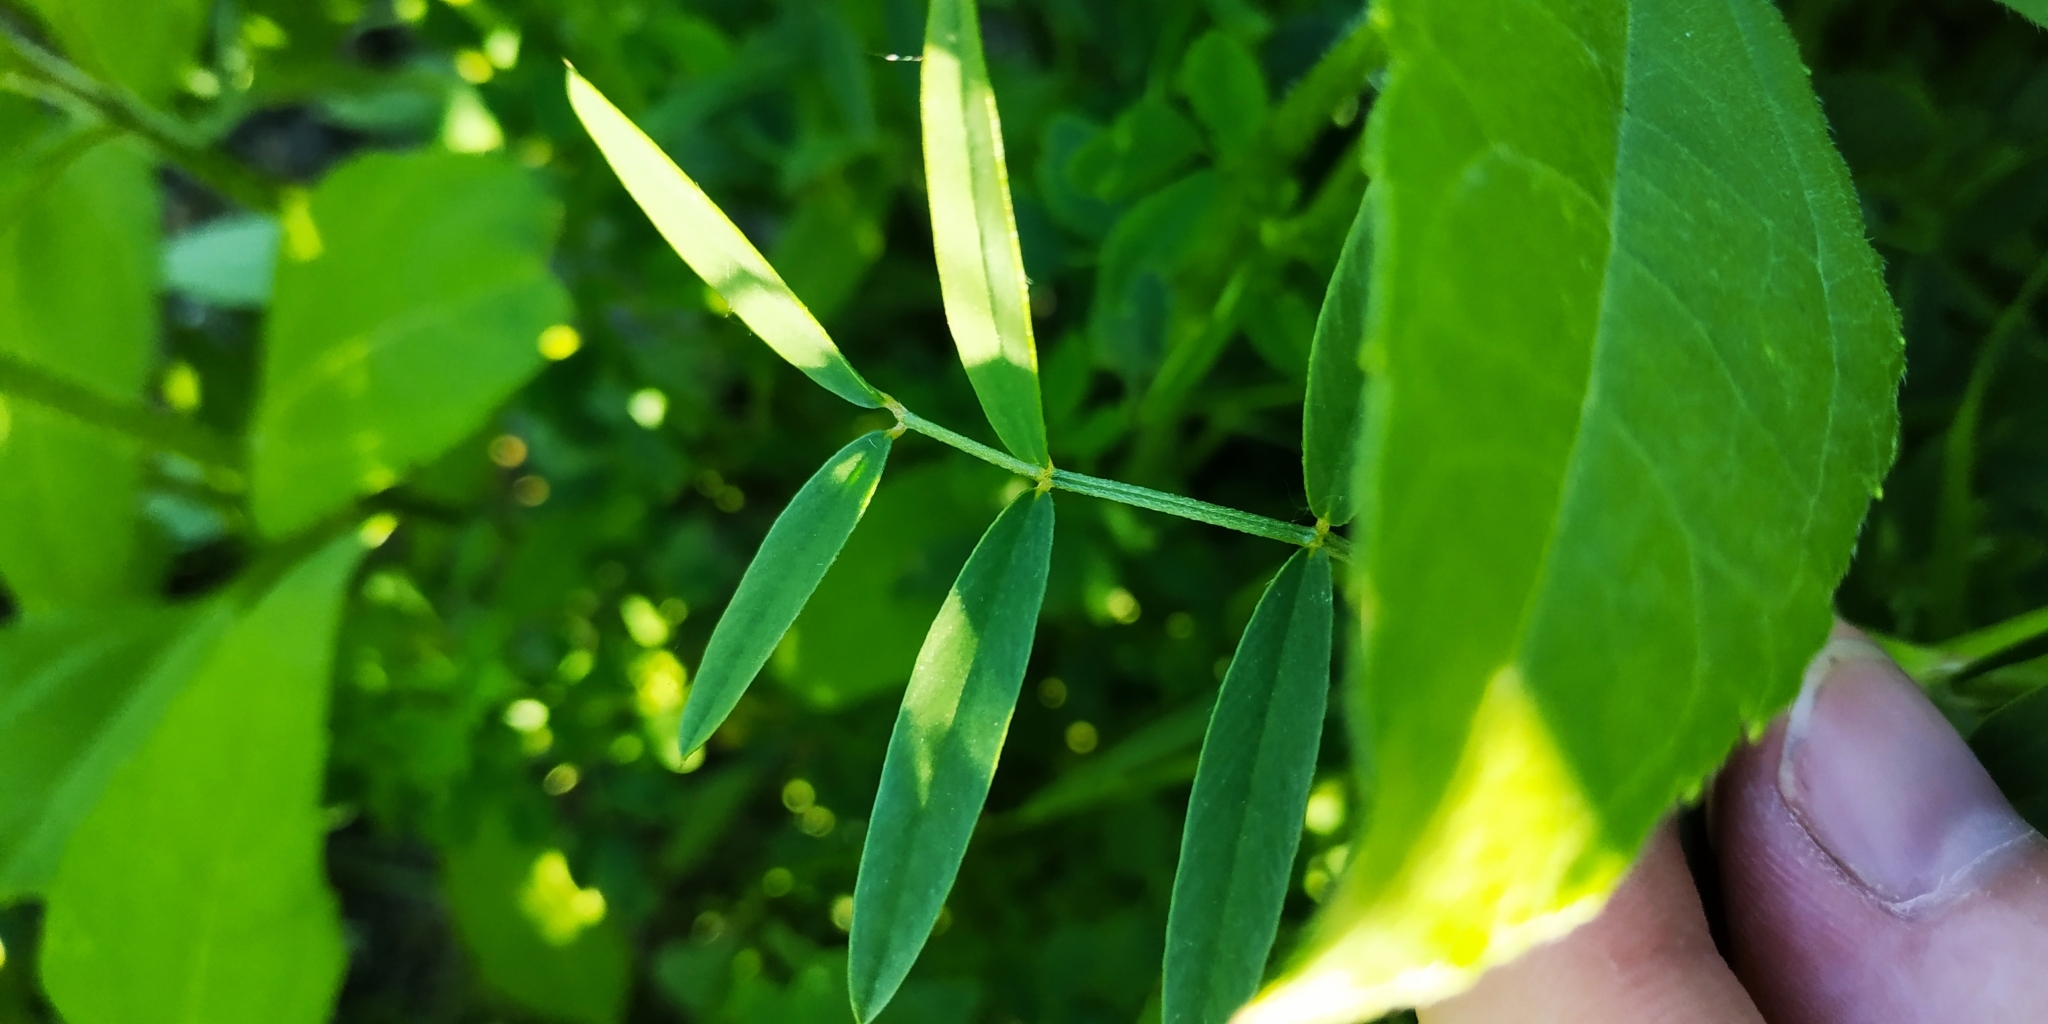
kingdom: Plantae
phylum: Tracheophyta
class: Magnoliopsida
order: Fabales
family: Fabaceae
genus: Onobrychis
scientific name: Onobrychis viciifolia
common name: Sainfoin
